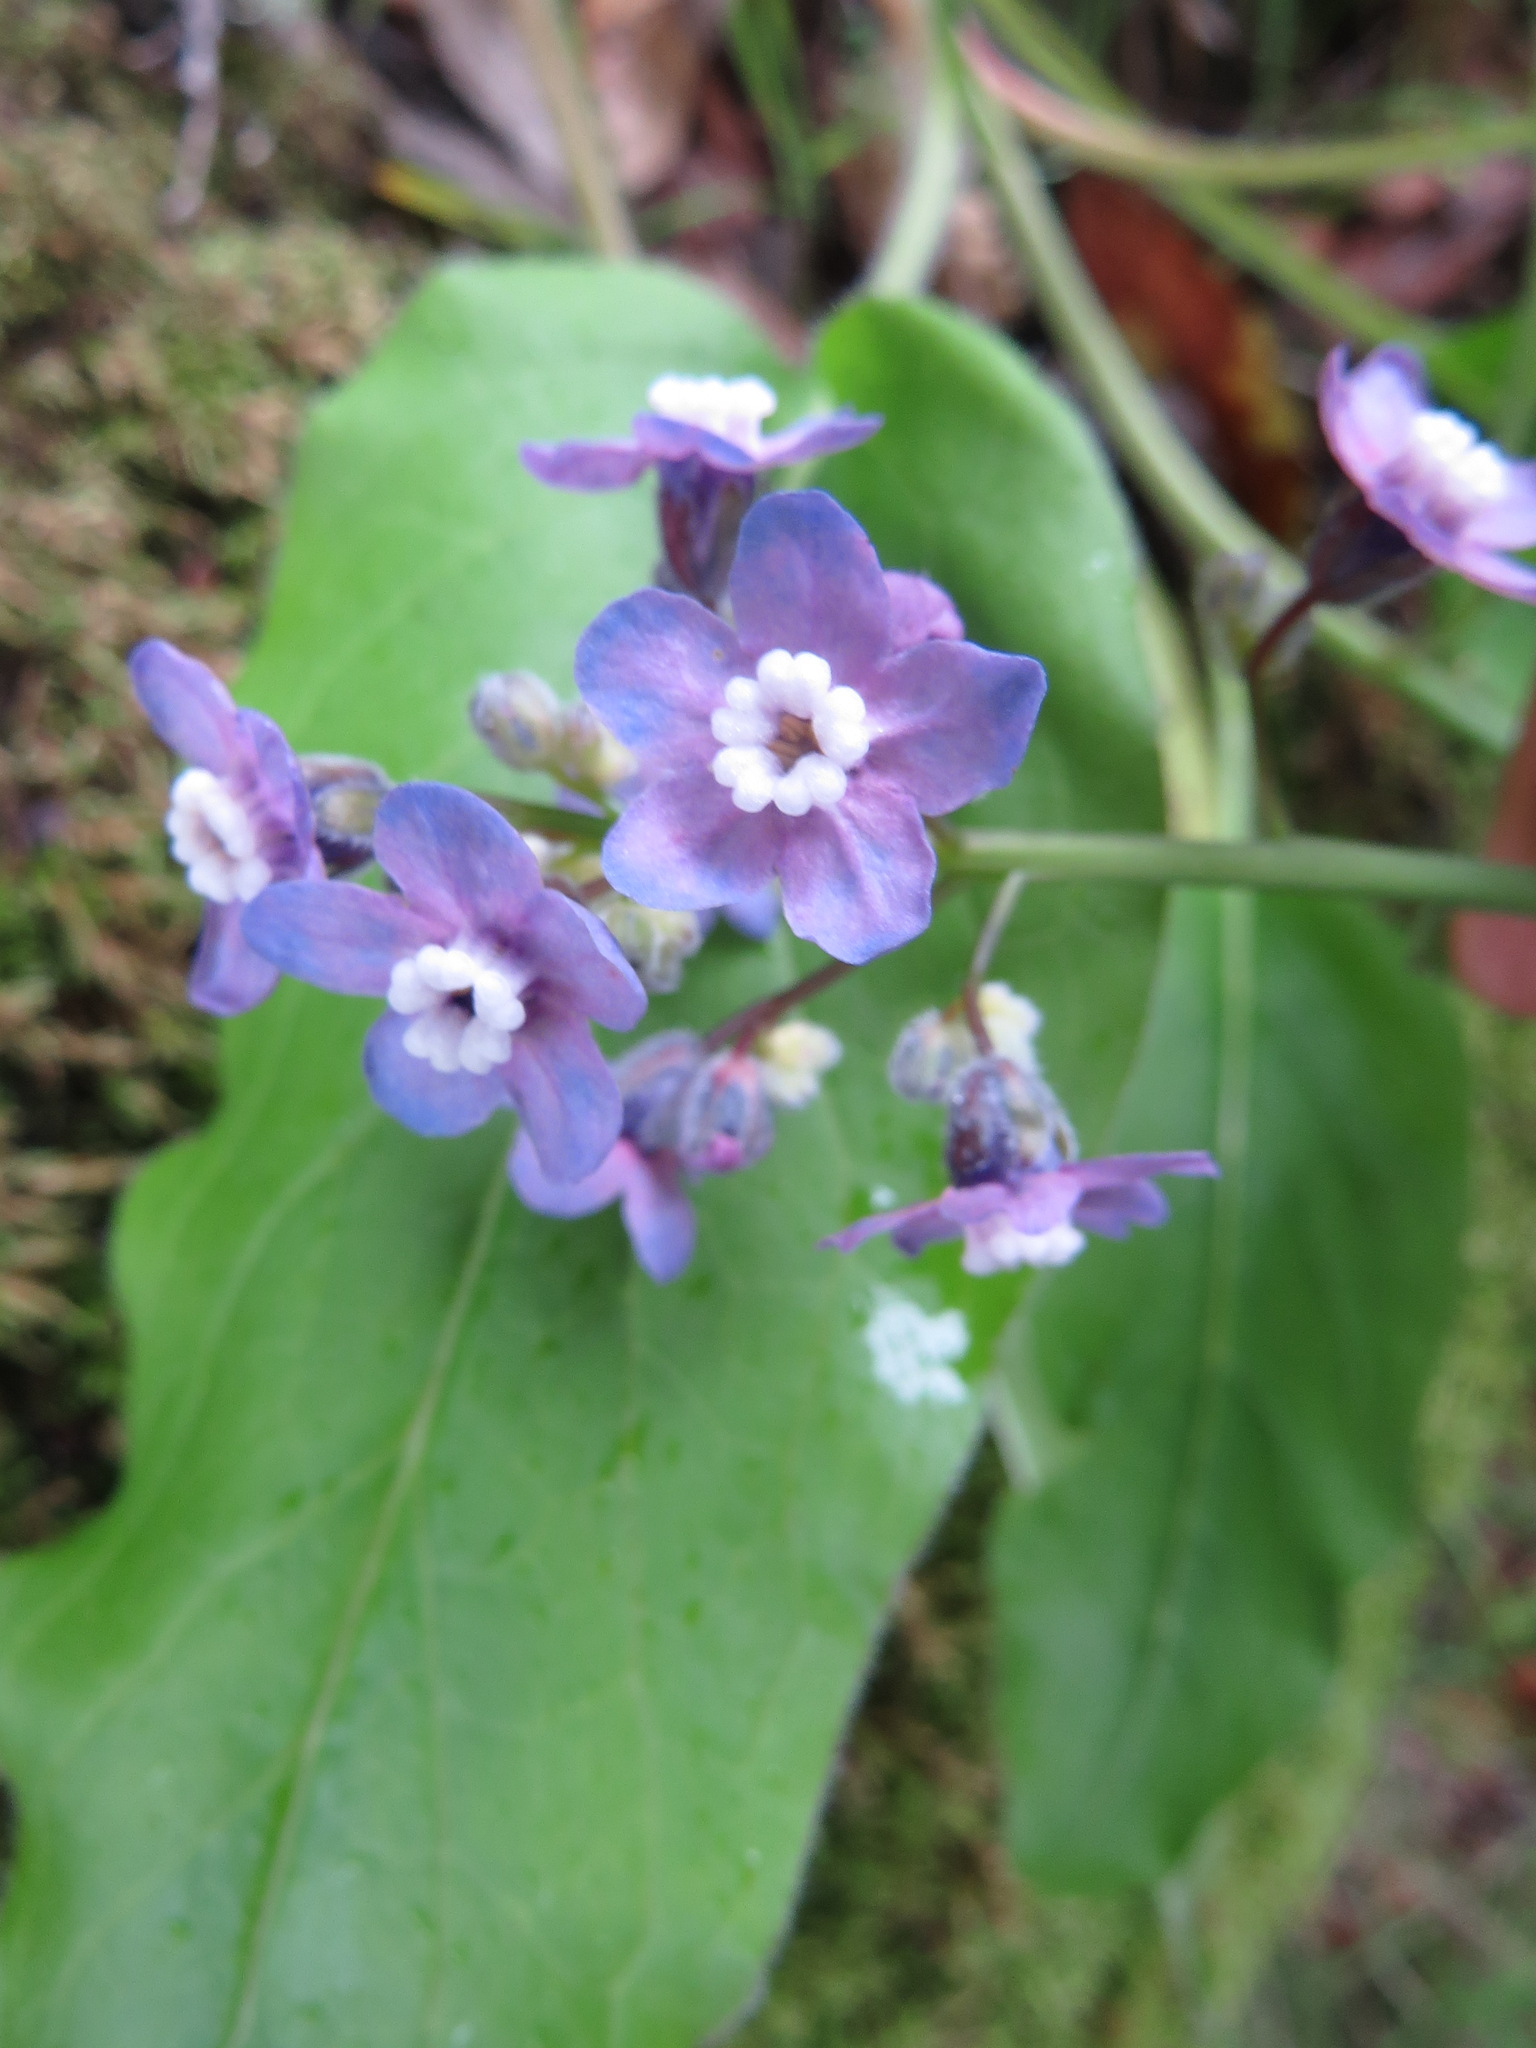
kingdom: Plantae
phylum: Tracheophyta
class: Magnoliopsida
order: Boraginales
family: Boraginaceae
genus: Adelinia
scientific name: Adelinia grande
